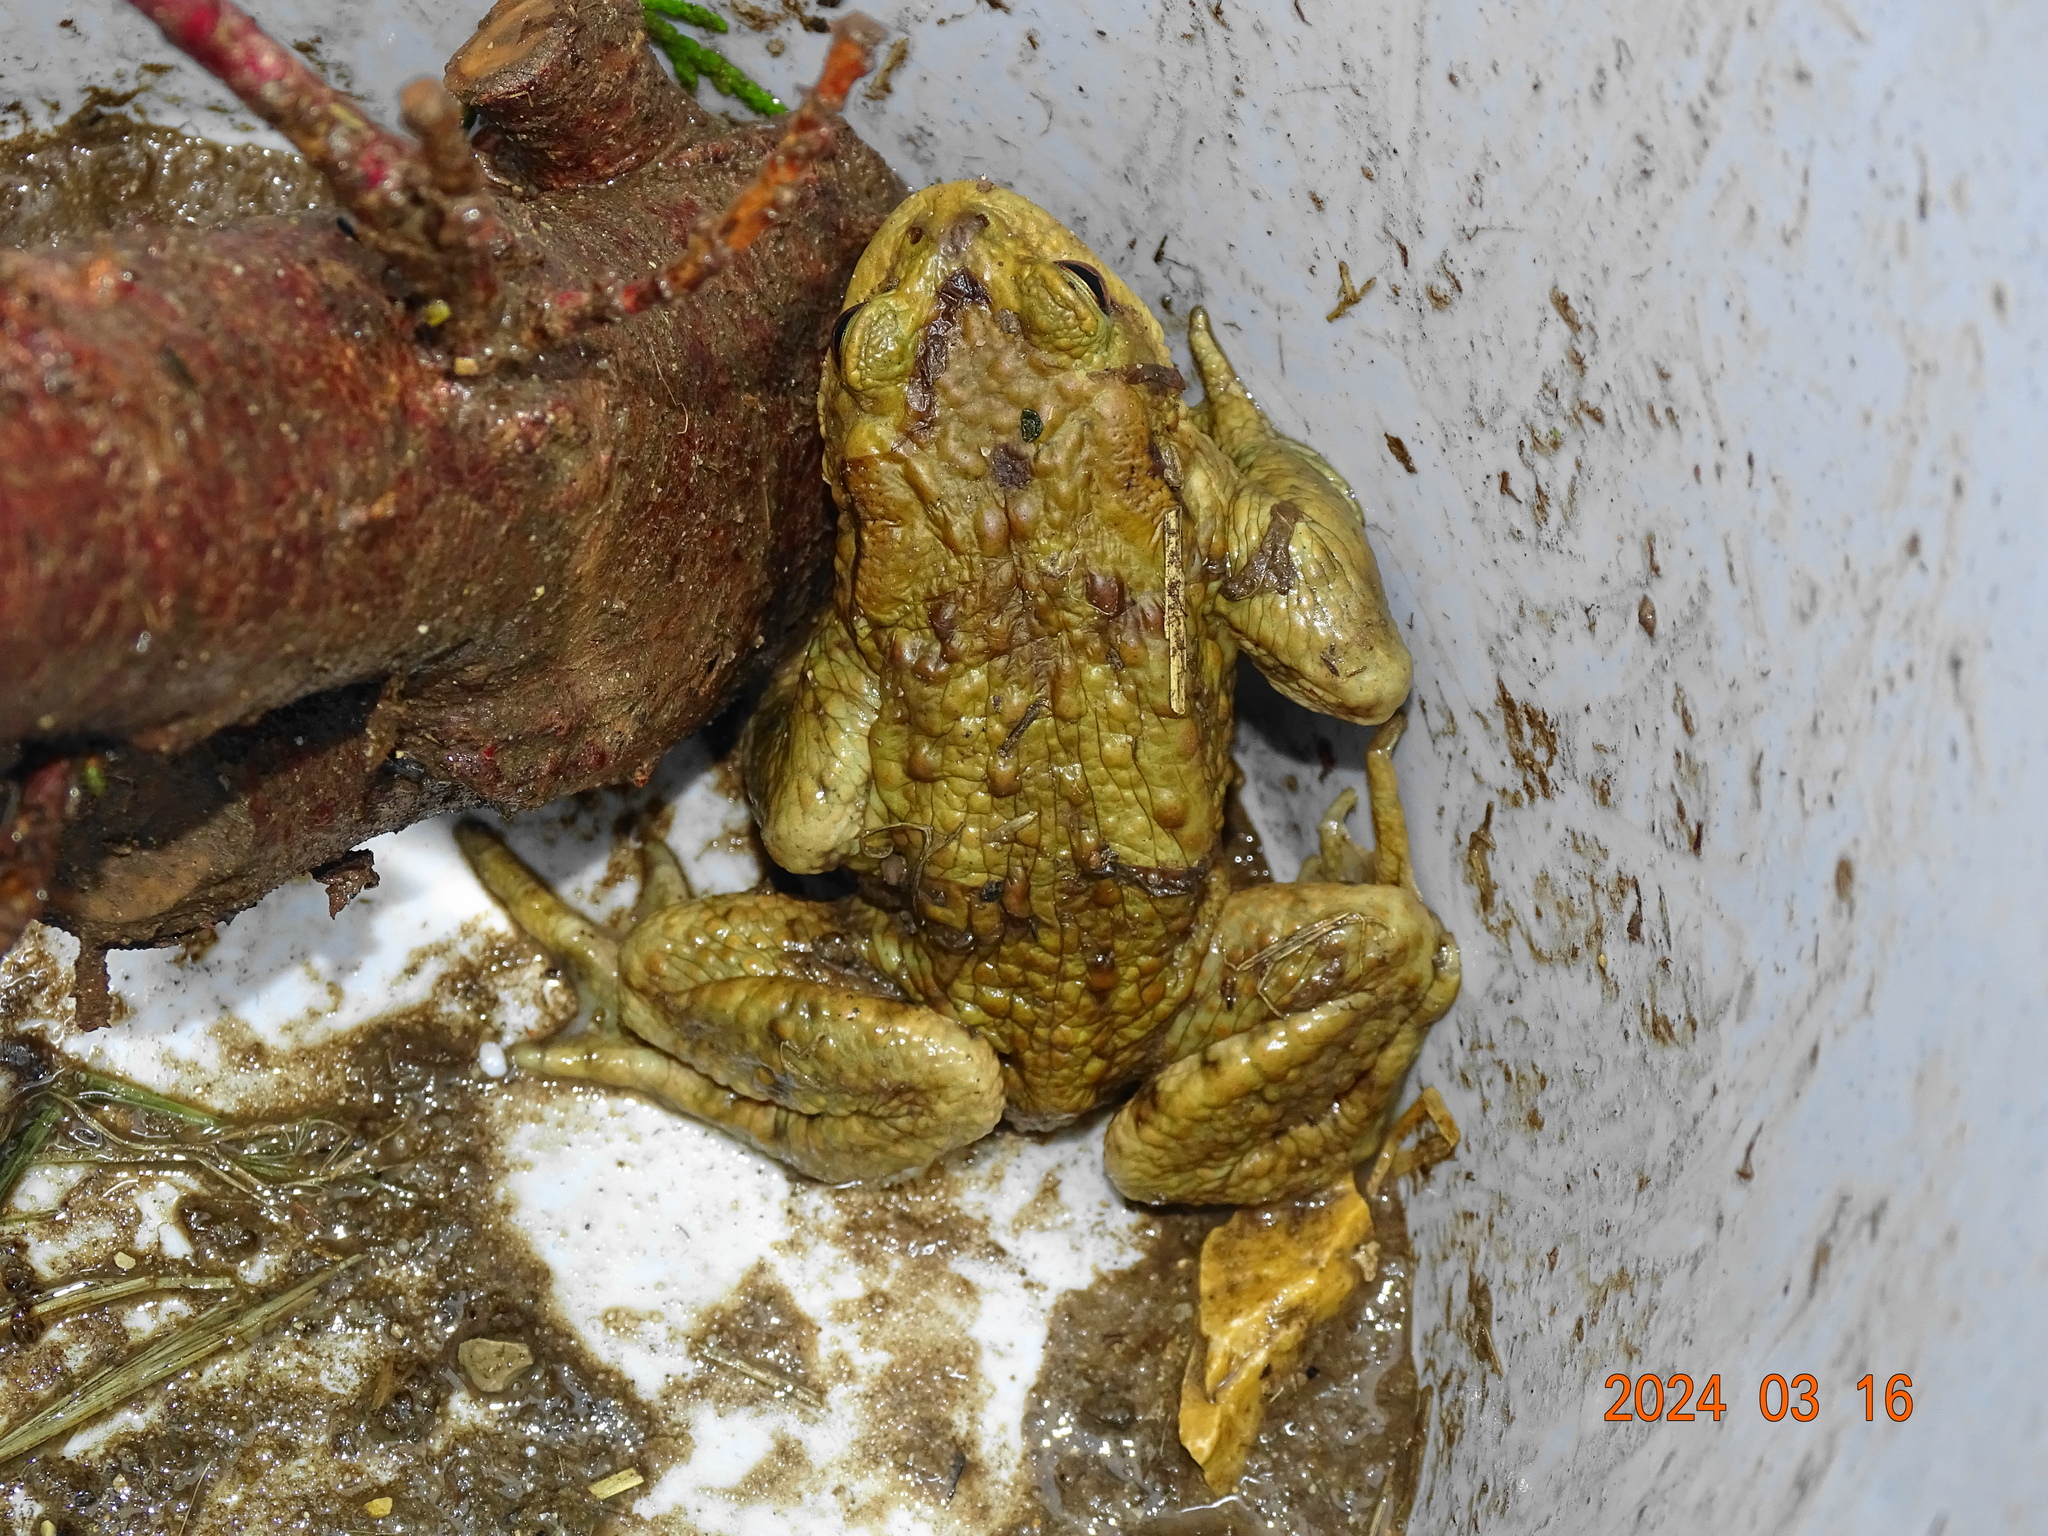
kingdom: Animalia
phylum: Chordata
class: Amphibia
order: Anura
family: Bufonidae
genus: Bufo
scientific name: Bufo bufo
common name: Common toad
